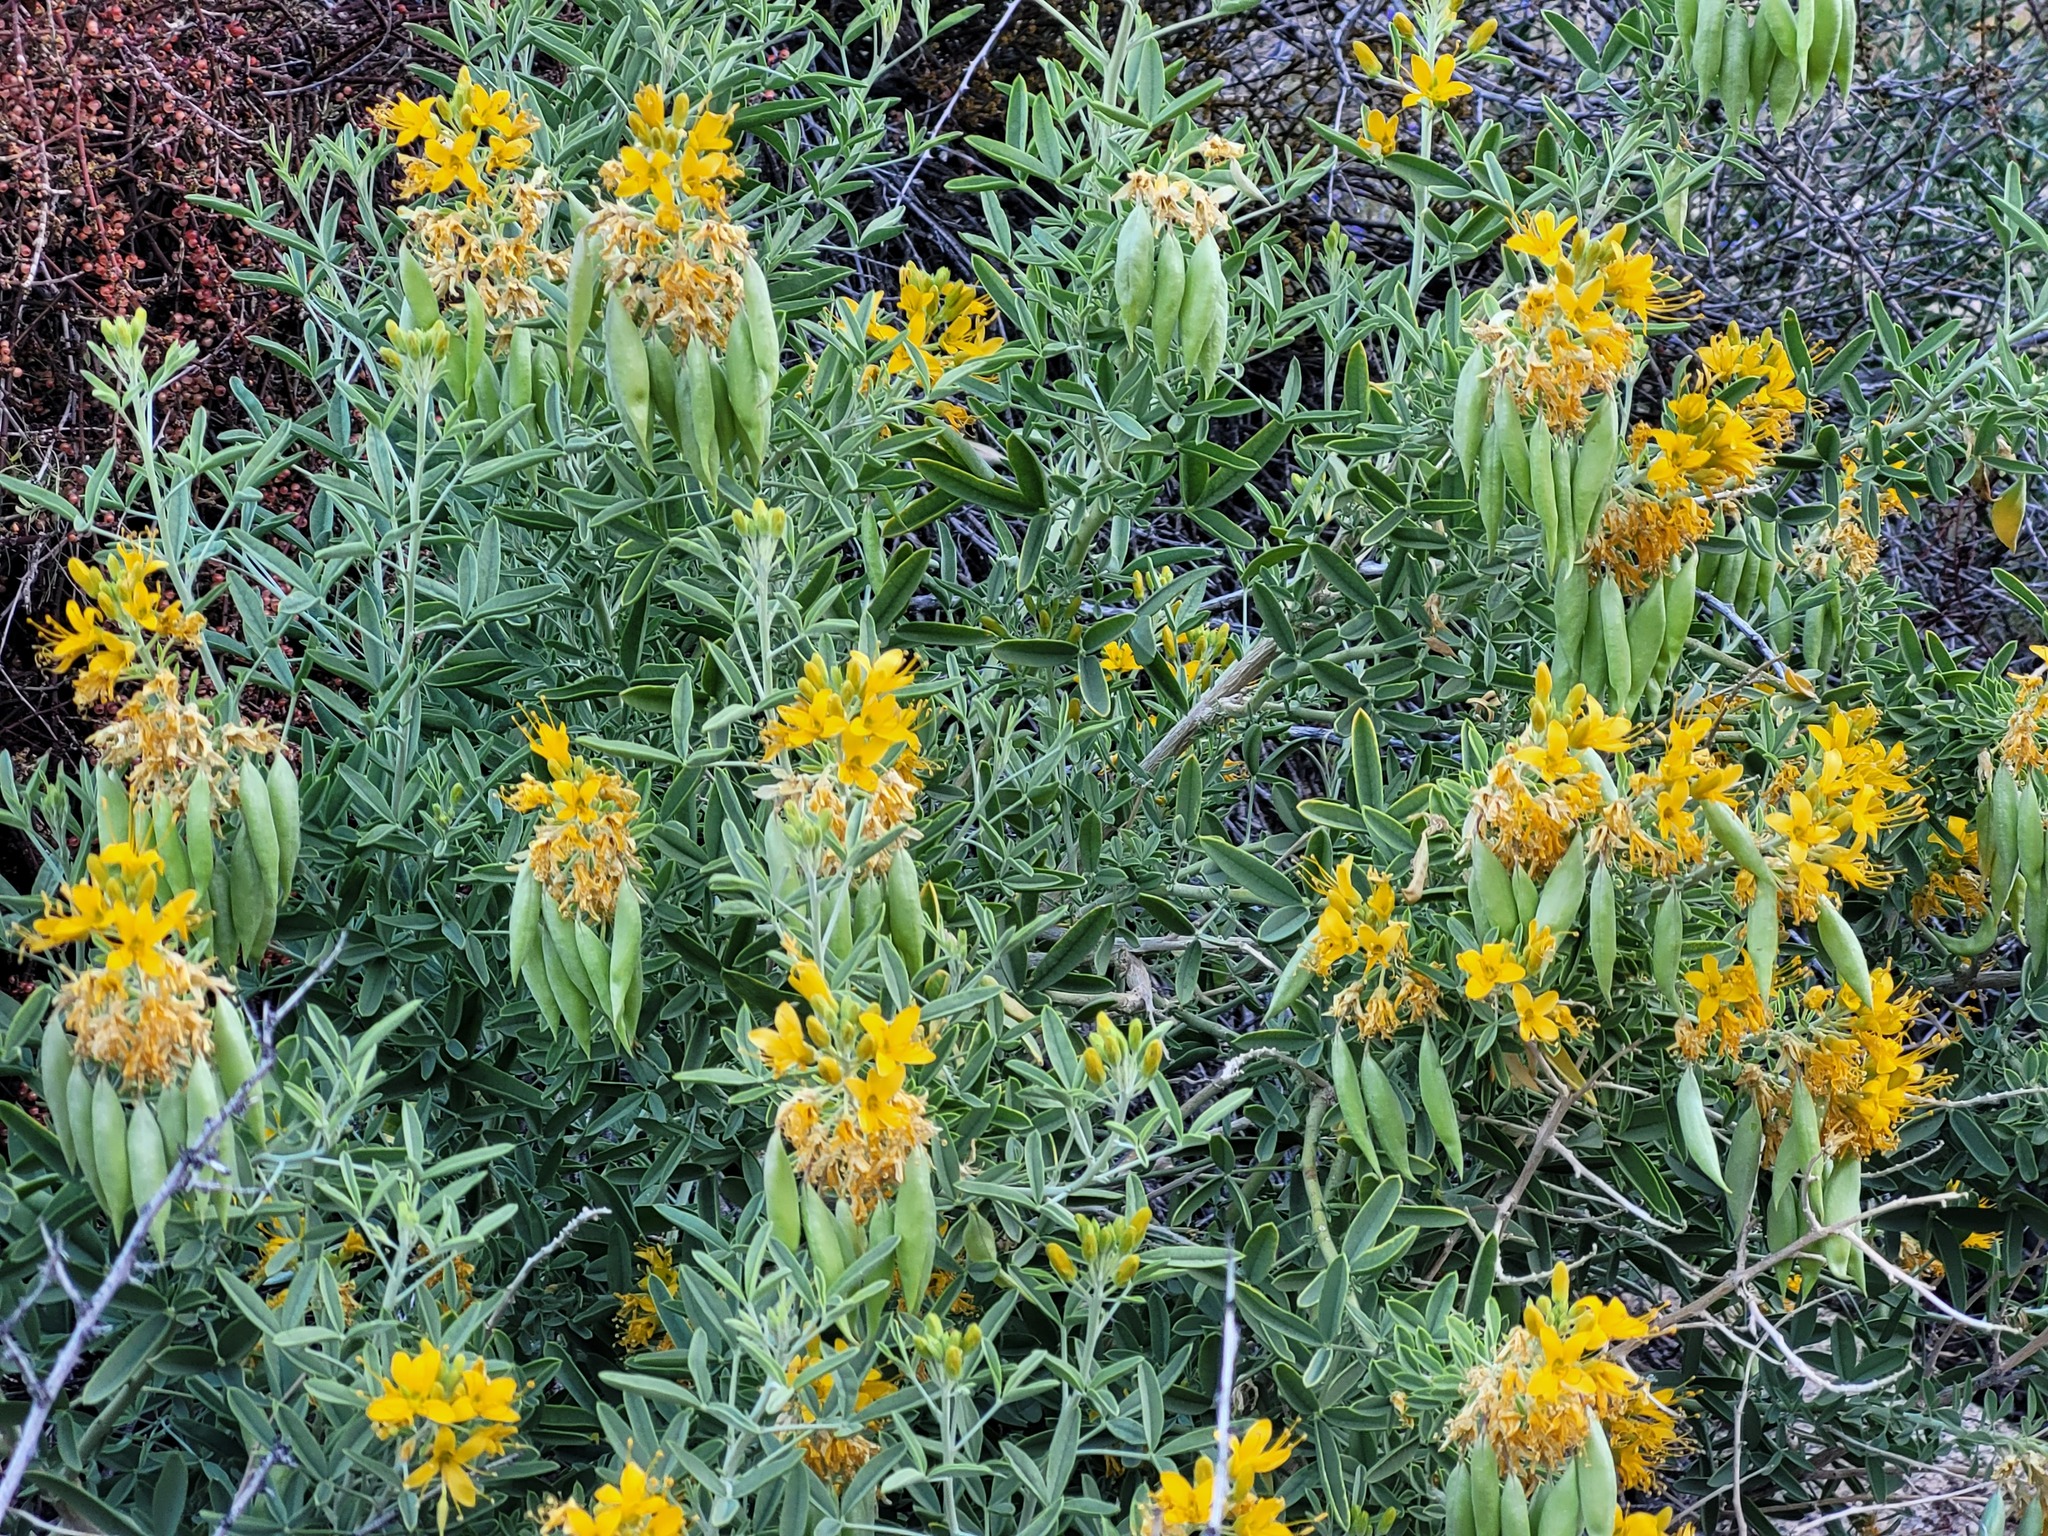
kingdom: Plantae
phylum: Tracheophyta
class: Magnoliopsida
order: Brassicales
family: Cleomaceae
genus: Cleomella
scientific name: Cleomella arborea
